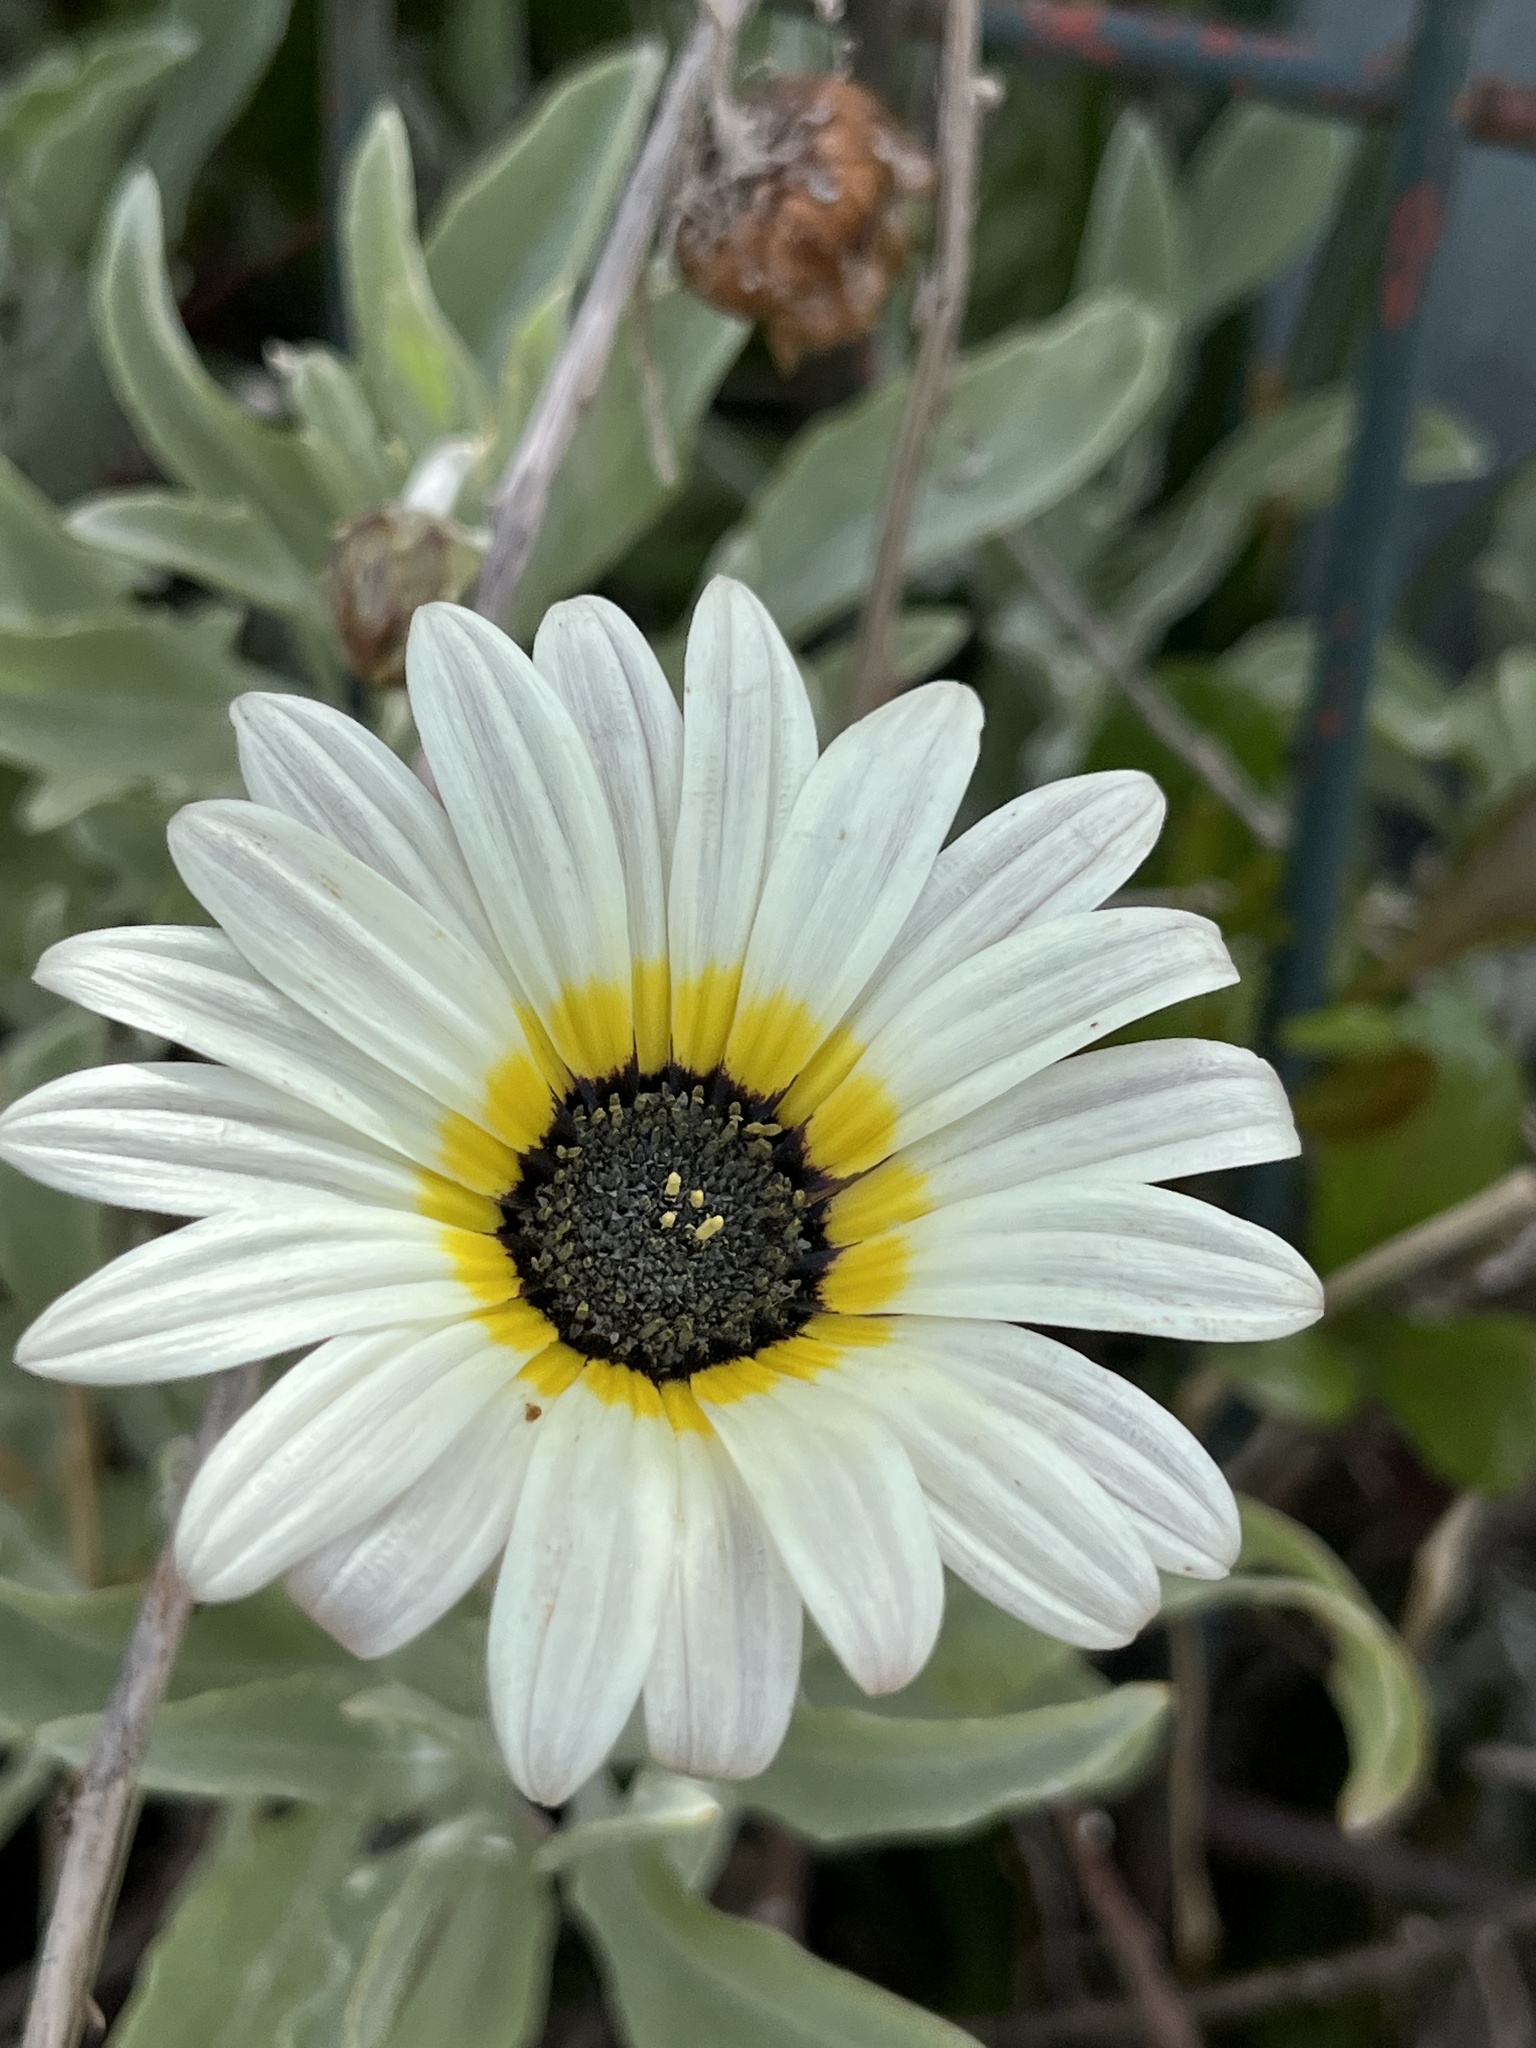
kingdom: Plantae
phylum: Tracheophyta
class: Magnoliopsida
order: Asterales
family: Asteraceae
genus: Arctotis
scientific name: Arctotis stoechadifolia
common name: African daisy
